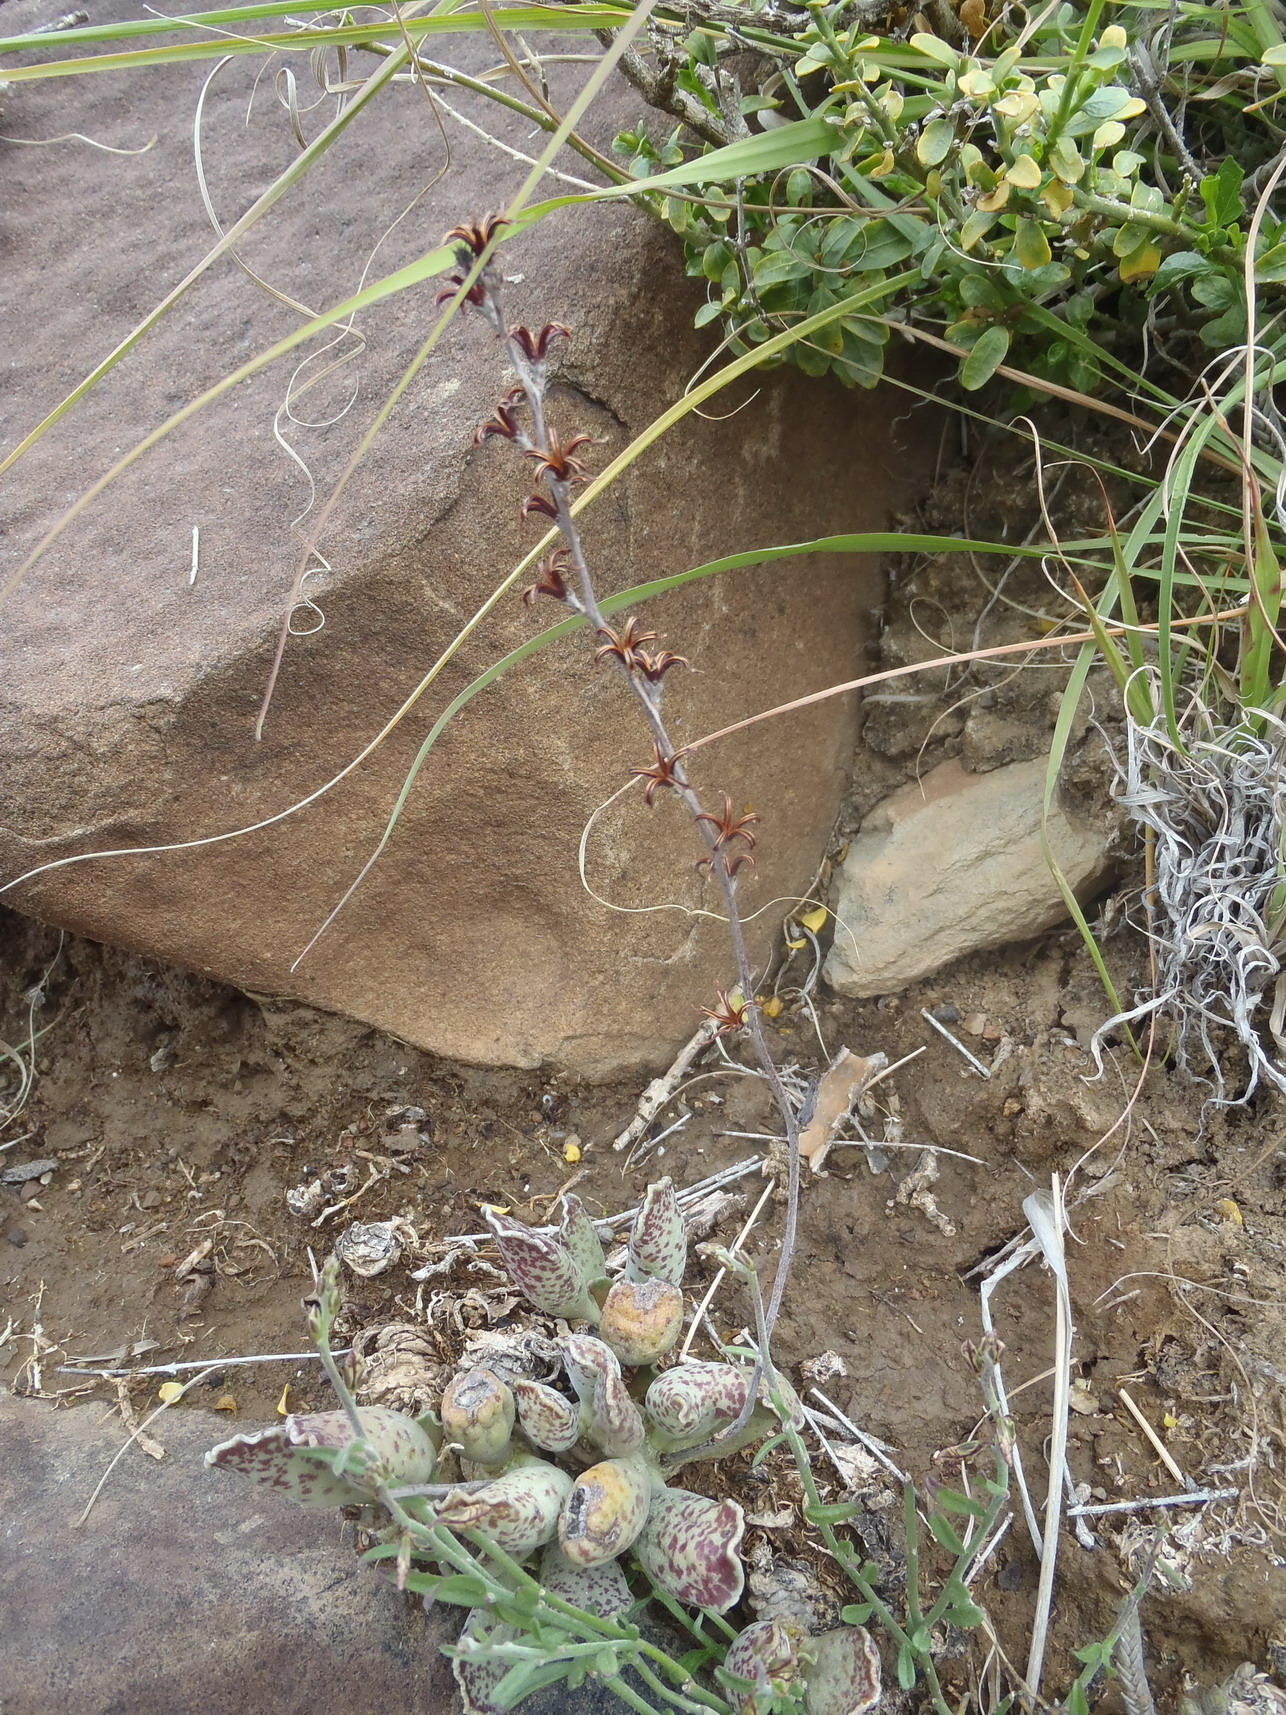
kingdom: Plantae
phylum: Tracheophyta
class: Magnoliopsida
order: Saxifragales
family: Crassulaceae
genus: Adromischus
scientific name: Adromischus cooperi
